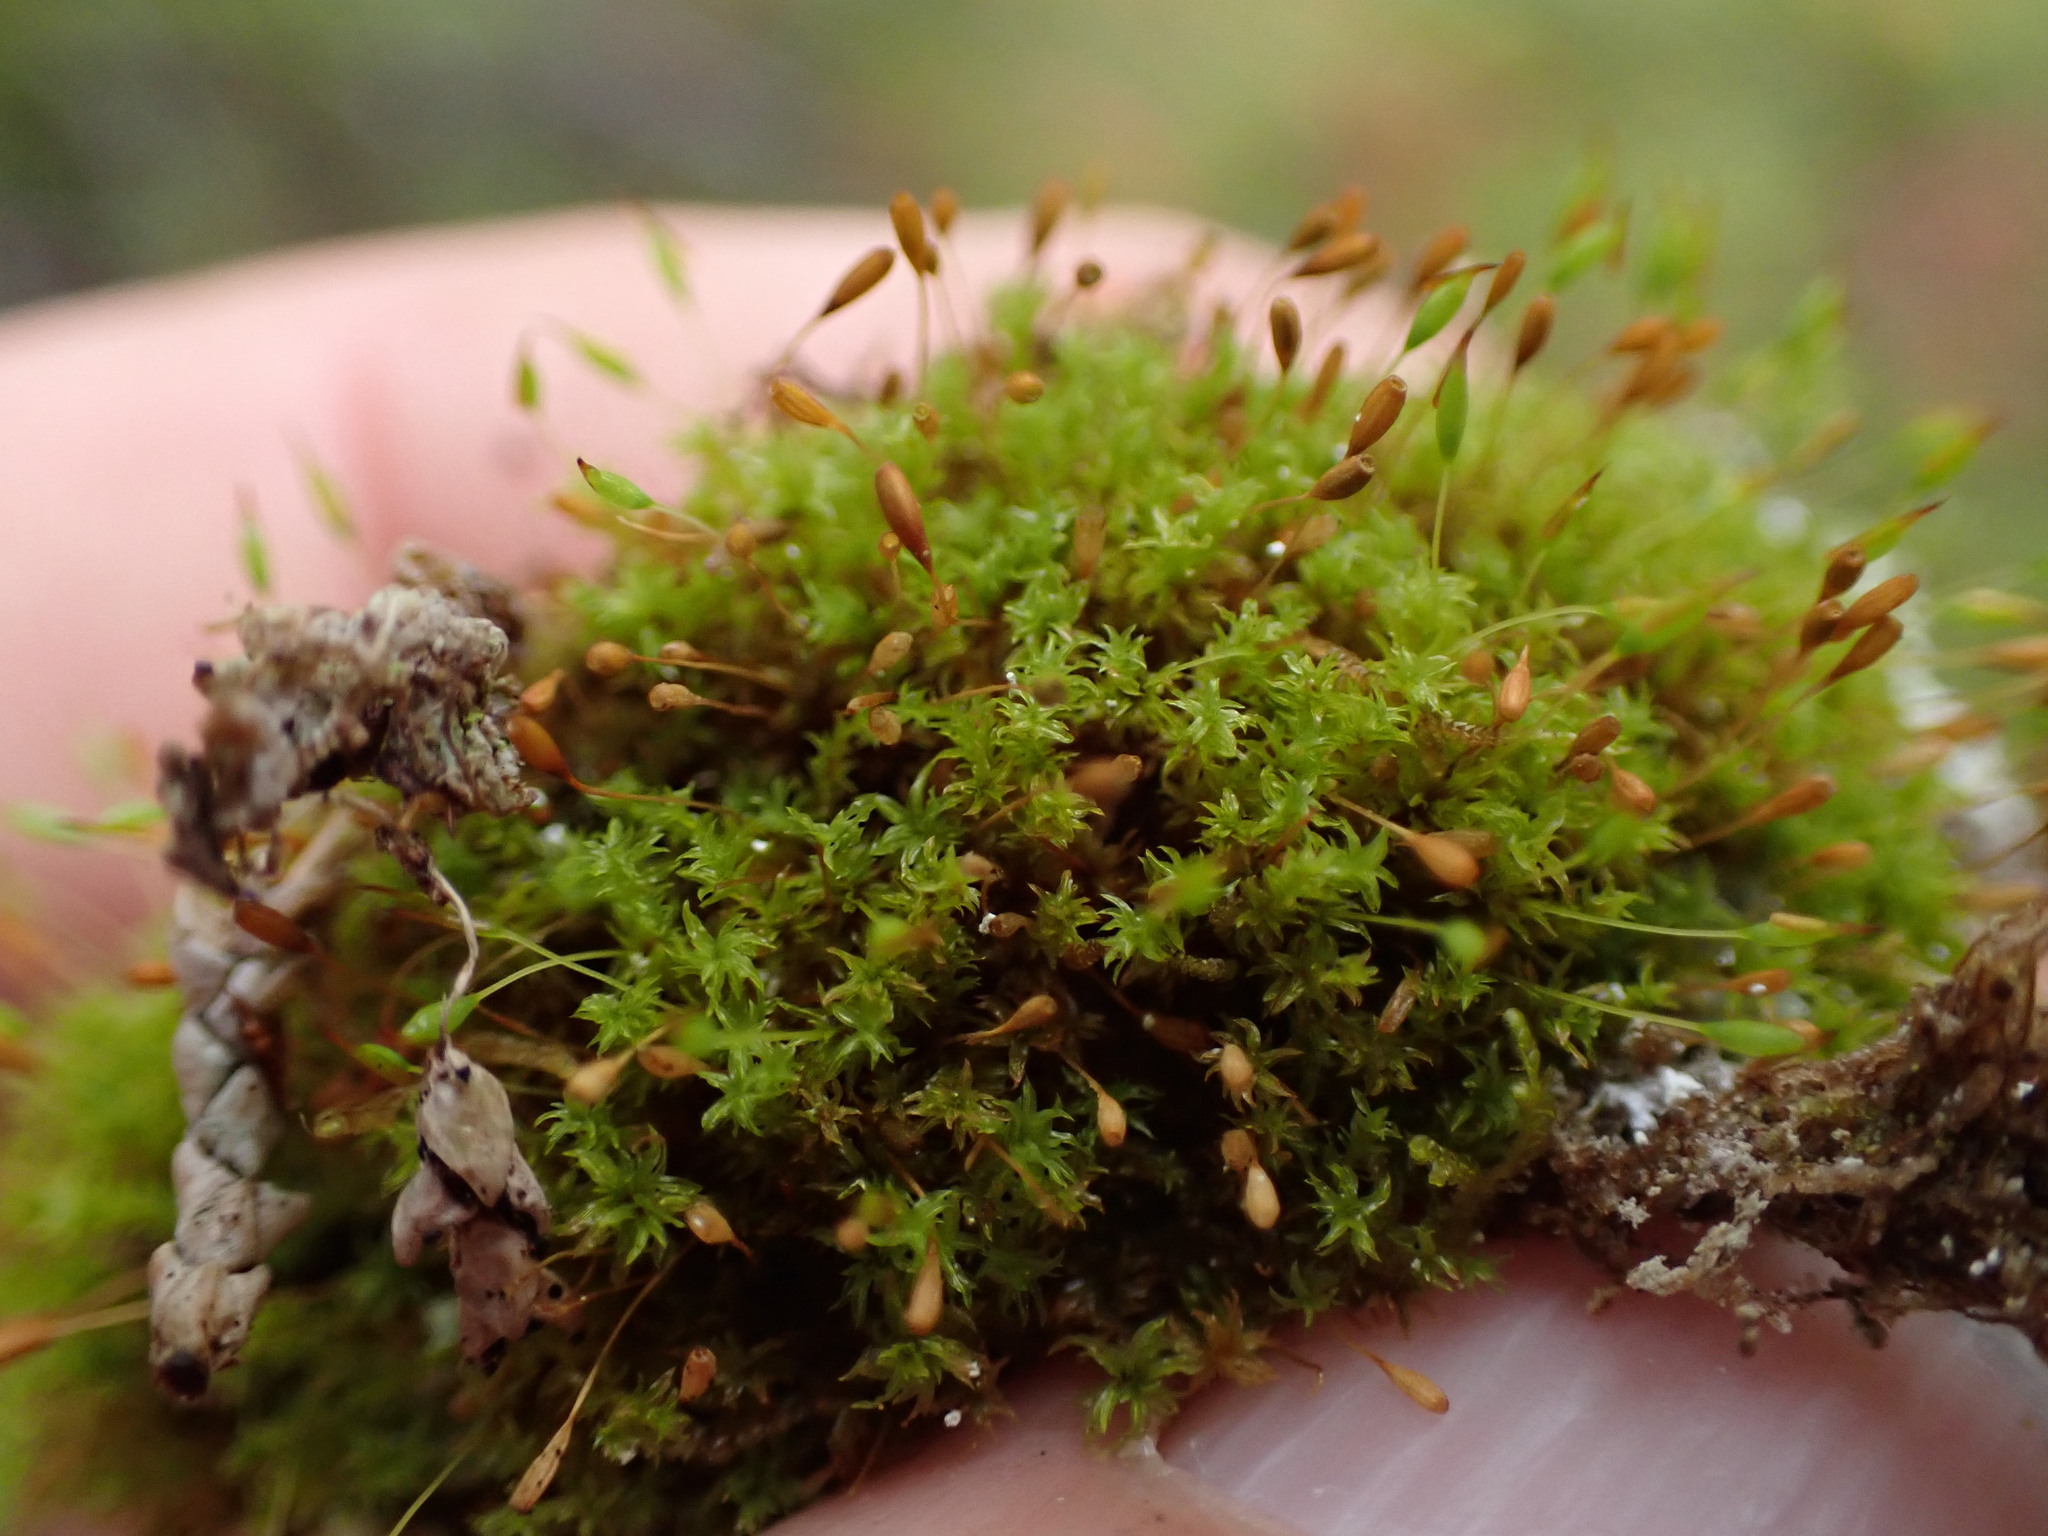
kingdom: Plantae
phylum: Bryophyta
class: Bryopsida
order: Orthotrichales
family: Orthotrichaceae
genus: Zygodon
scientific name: Zygodon reinwardtii
